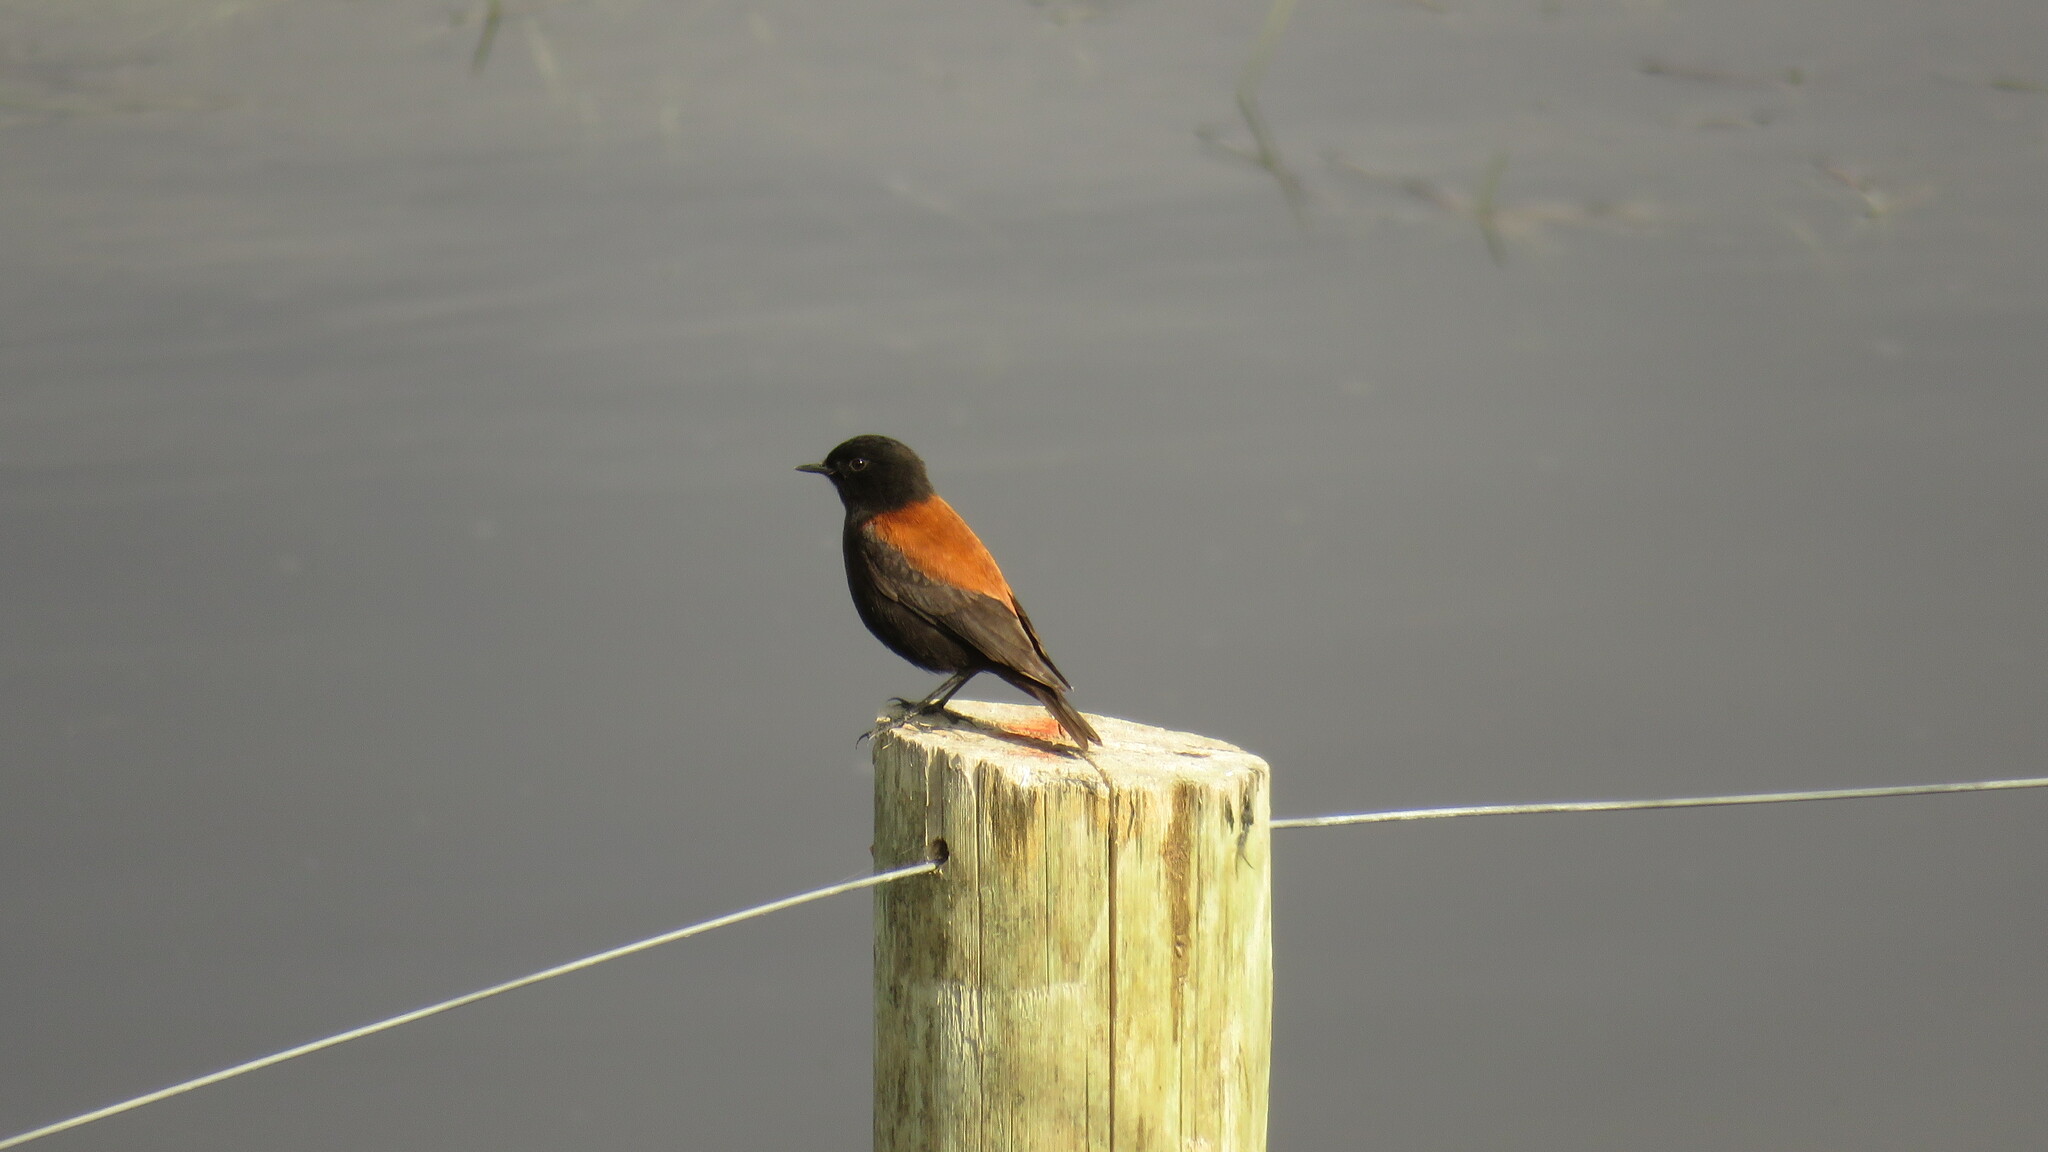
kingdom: Animalia
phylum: Chordata
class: Aves
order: Passeriformes
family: Tyrannidae
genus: Lessonia
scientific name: Lessonia rufa
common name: Austral negrito
